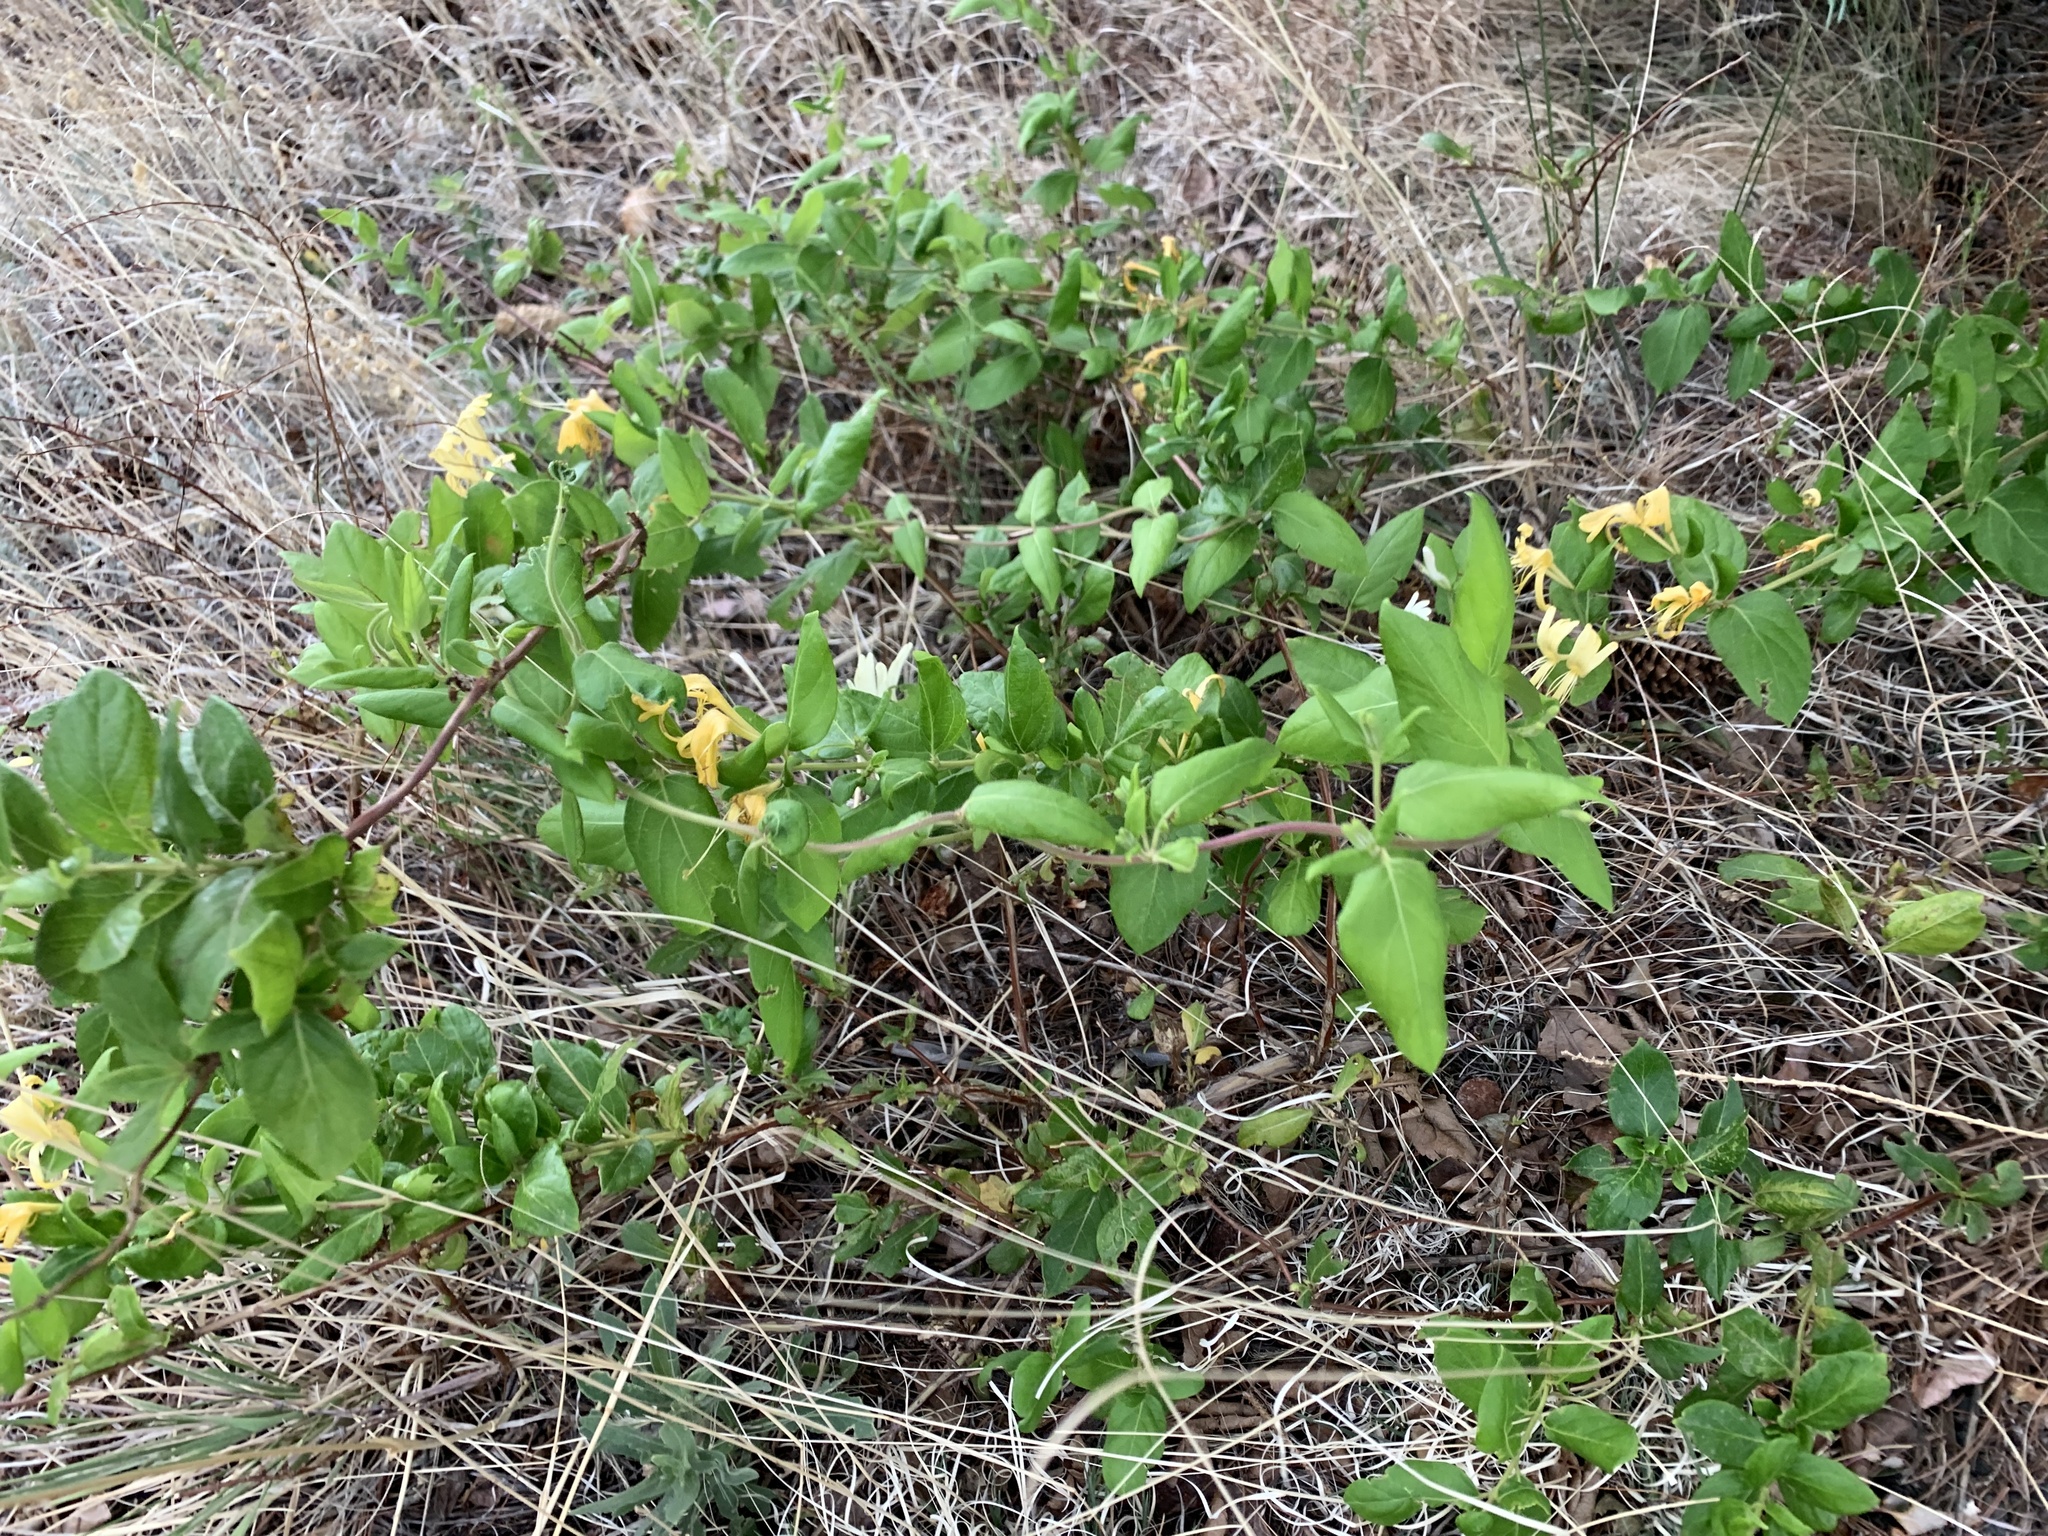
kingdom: Plantae
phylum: Tracheophyta
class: Magnoliopsida
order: Dipsacales
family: Caprifoliaceae
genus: Lonicera
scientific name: Lonicera japonica
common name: Japanese honeysuckle
